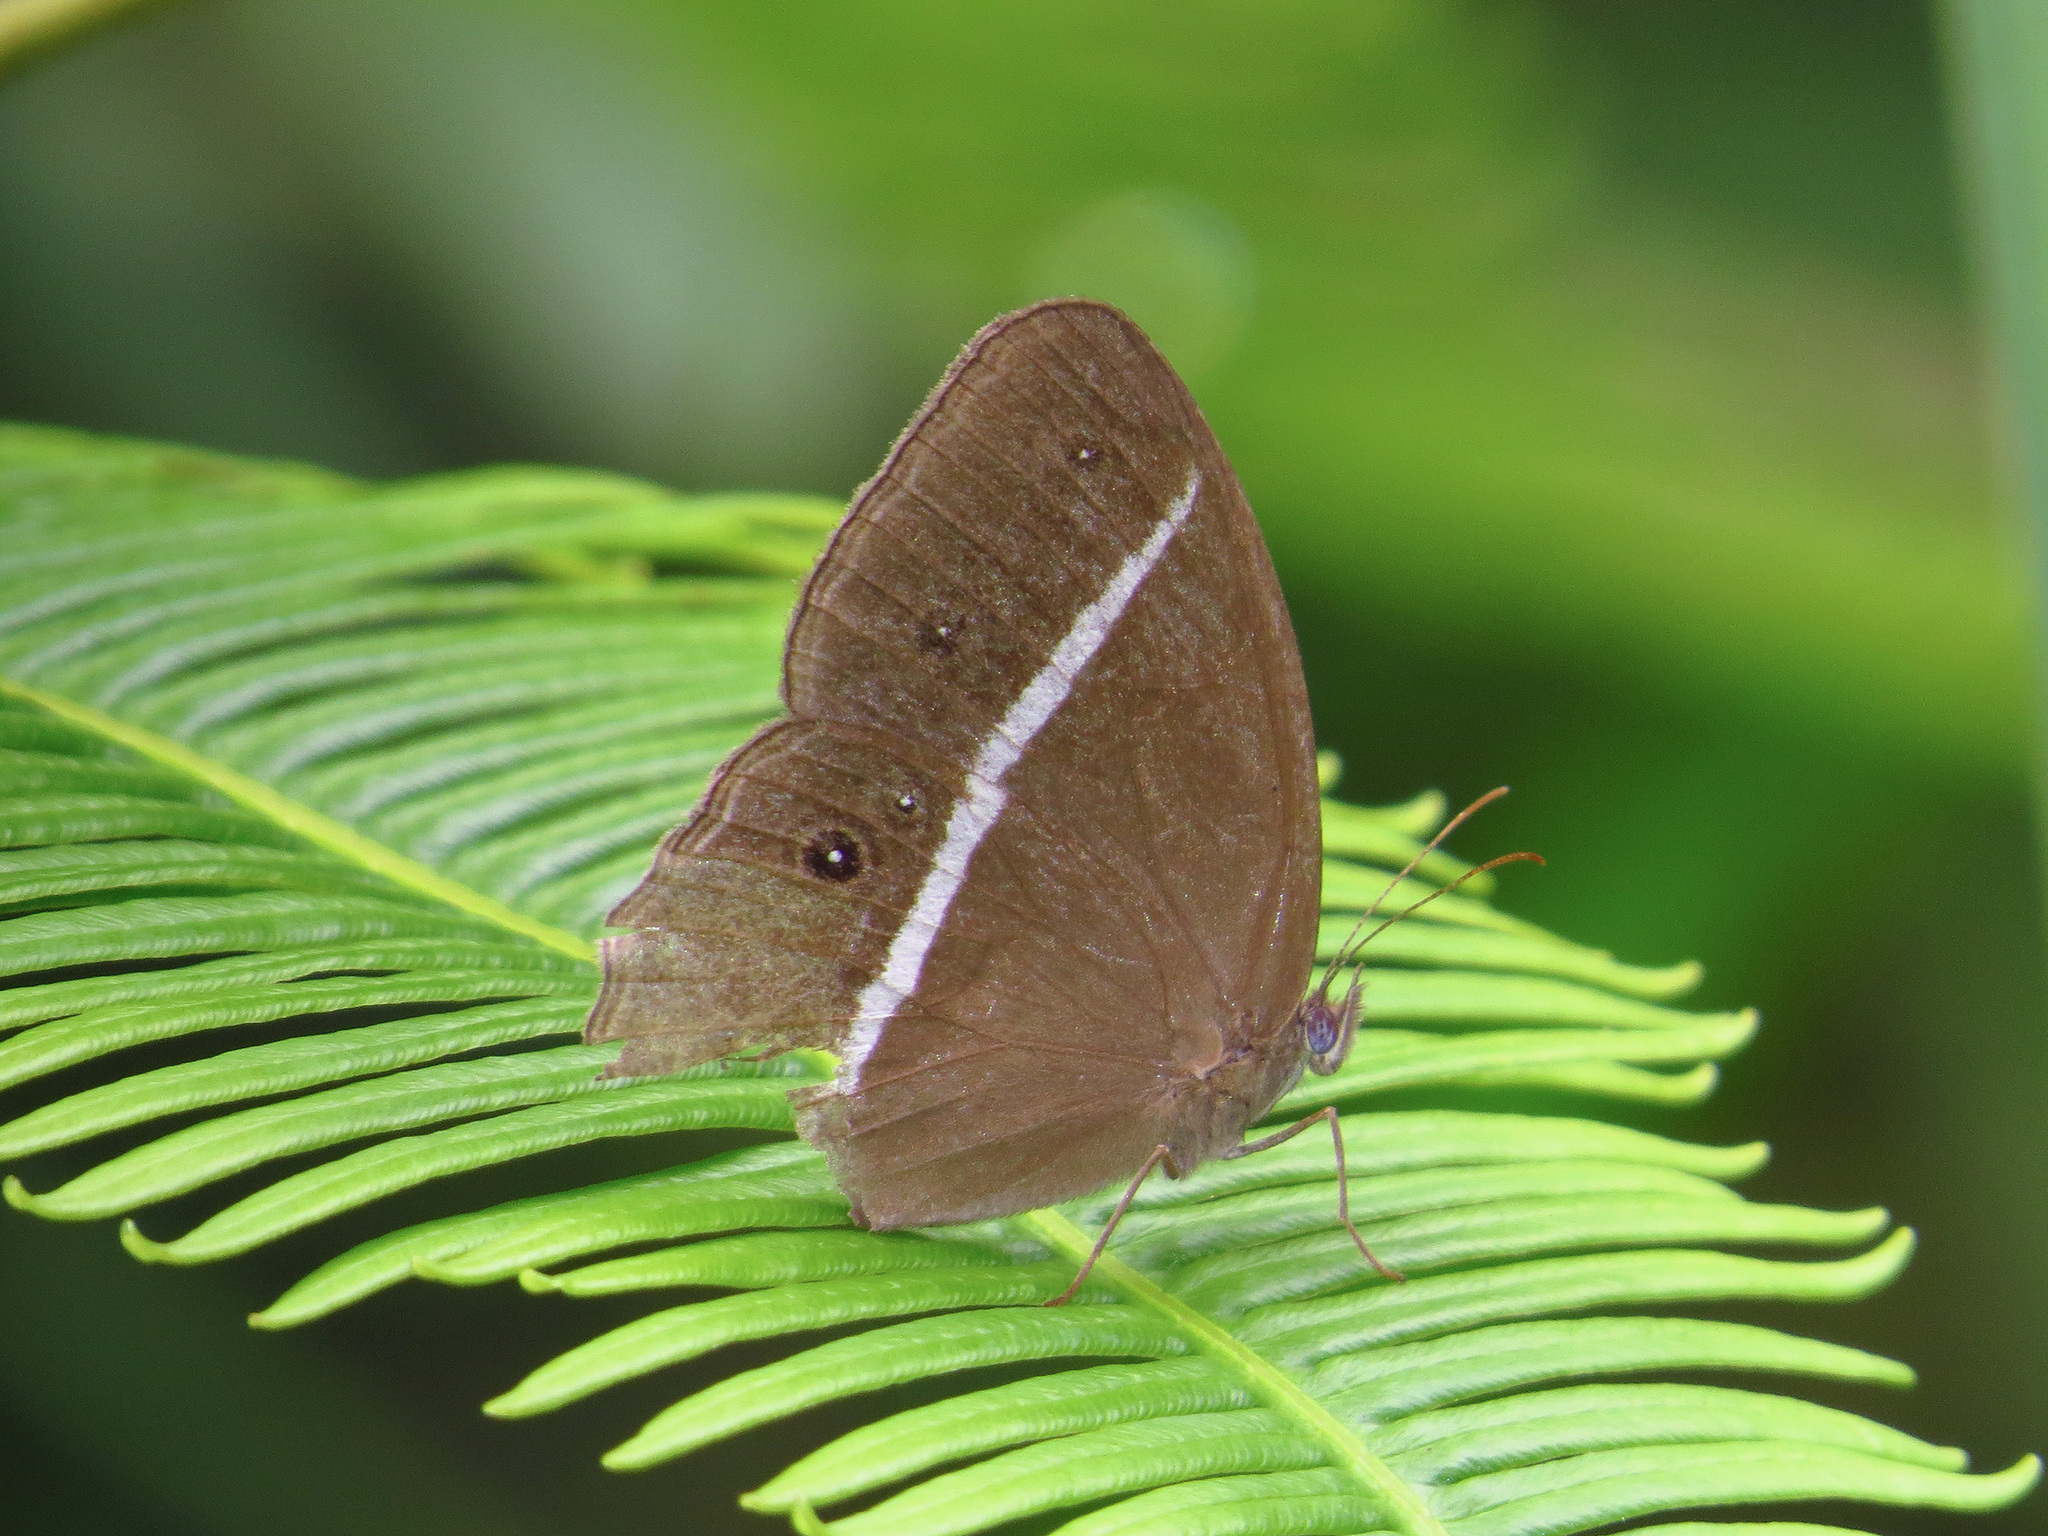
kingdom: Animalia
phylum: Arthropoda
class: Insecta
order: Lepidoptera
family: Nymphalidae
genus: Orsotriaena
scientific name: Orsotriaena medus
